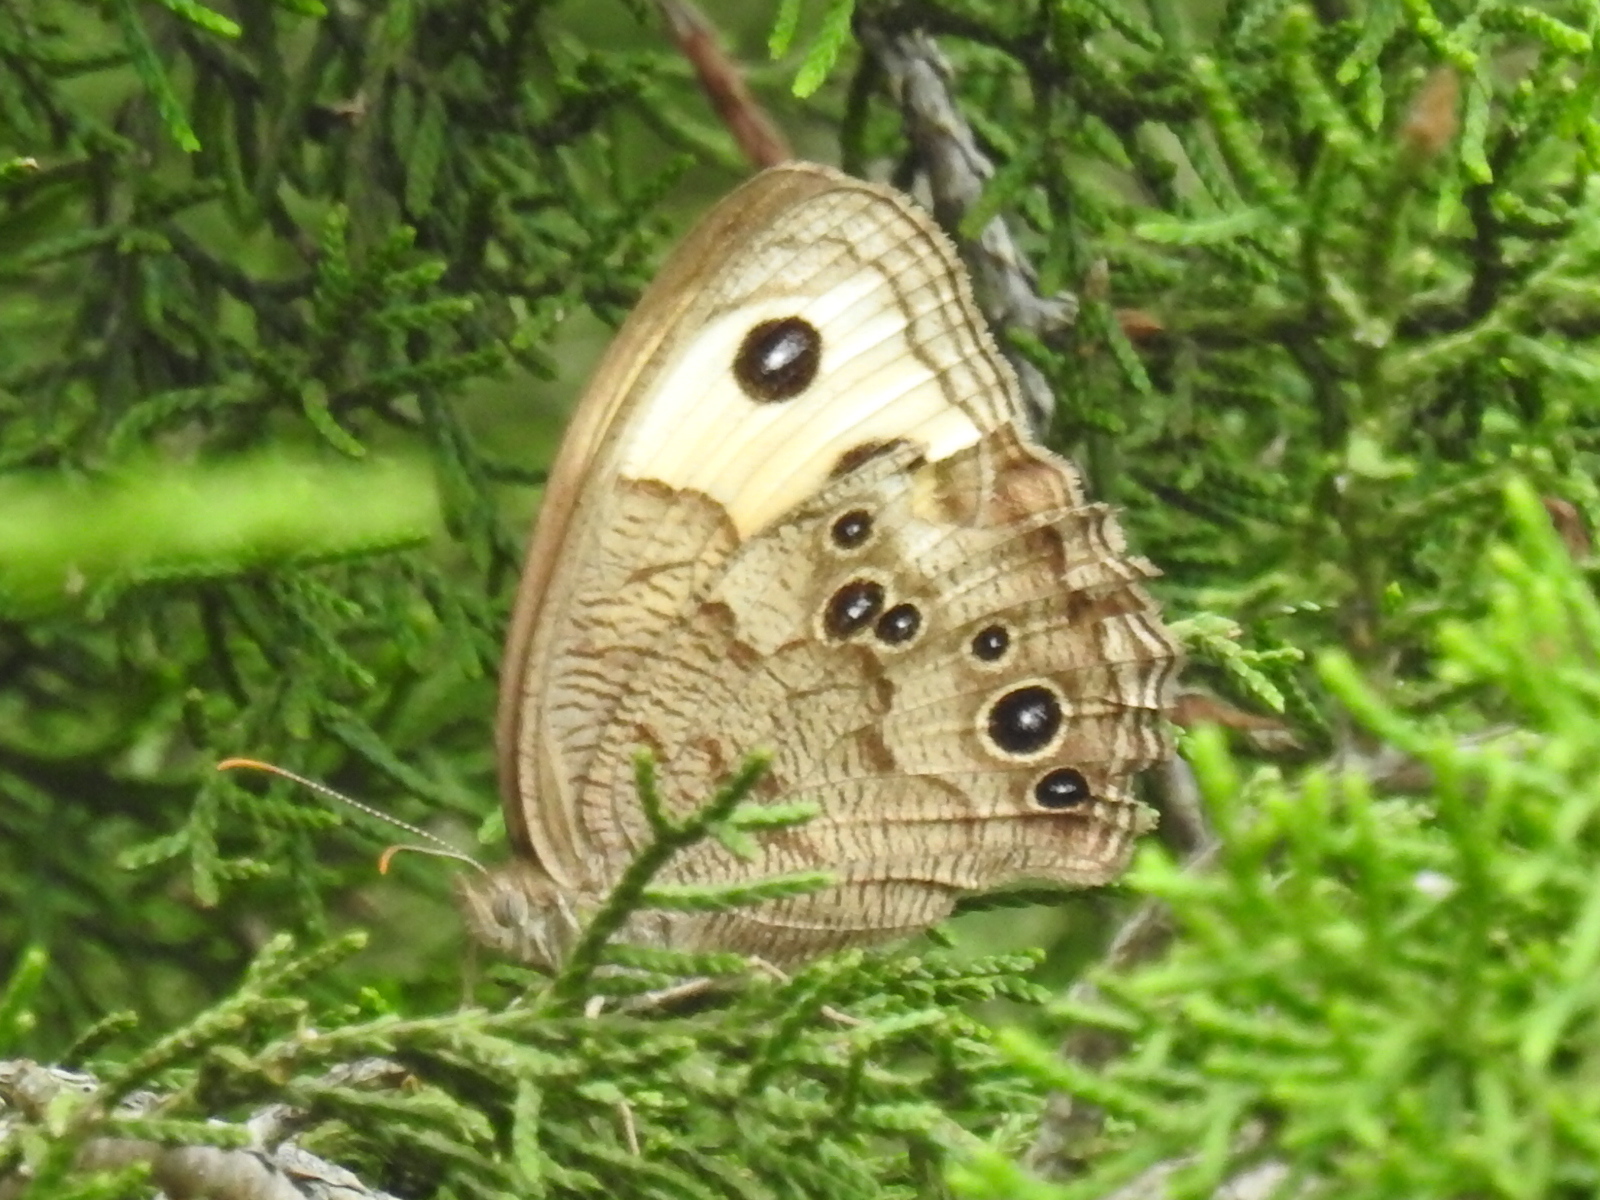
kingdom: Animalia
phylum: Arthropoda
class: Insecta
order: Lepidoptera
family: Nymphalidae
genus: Cercyonis
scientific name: Cercyonis pegala
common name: Common wood-nymph
